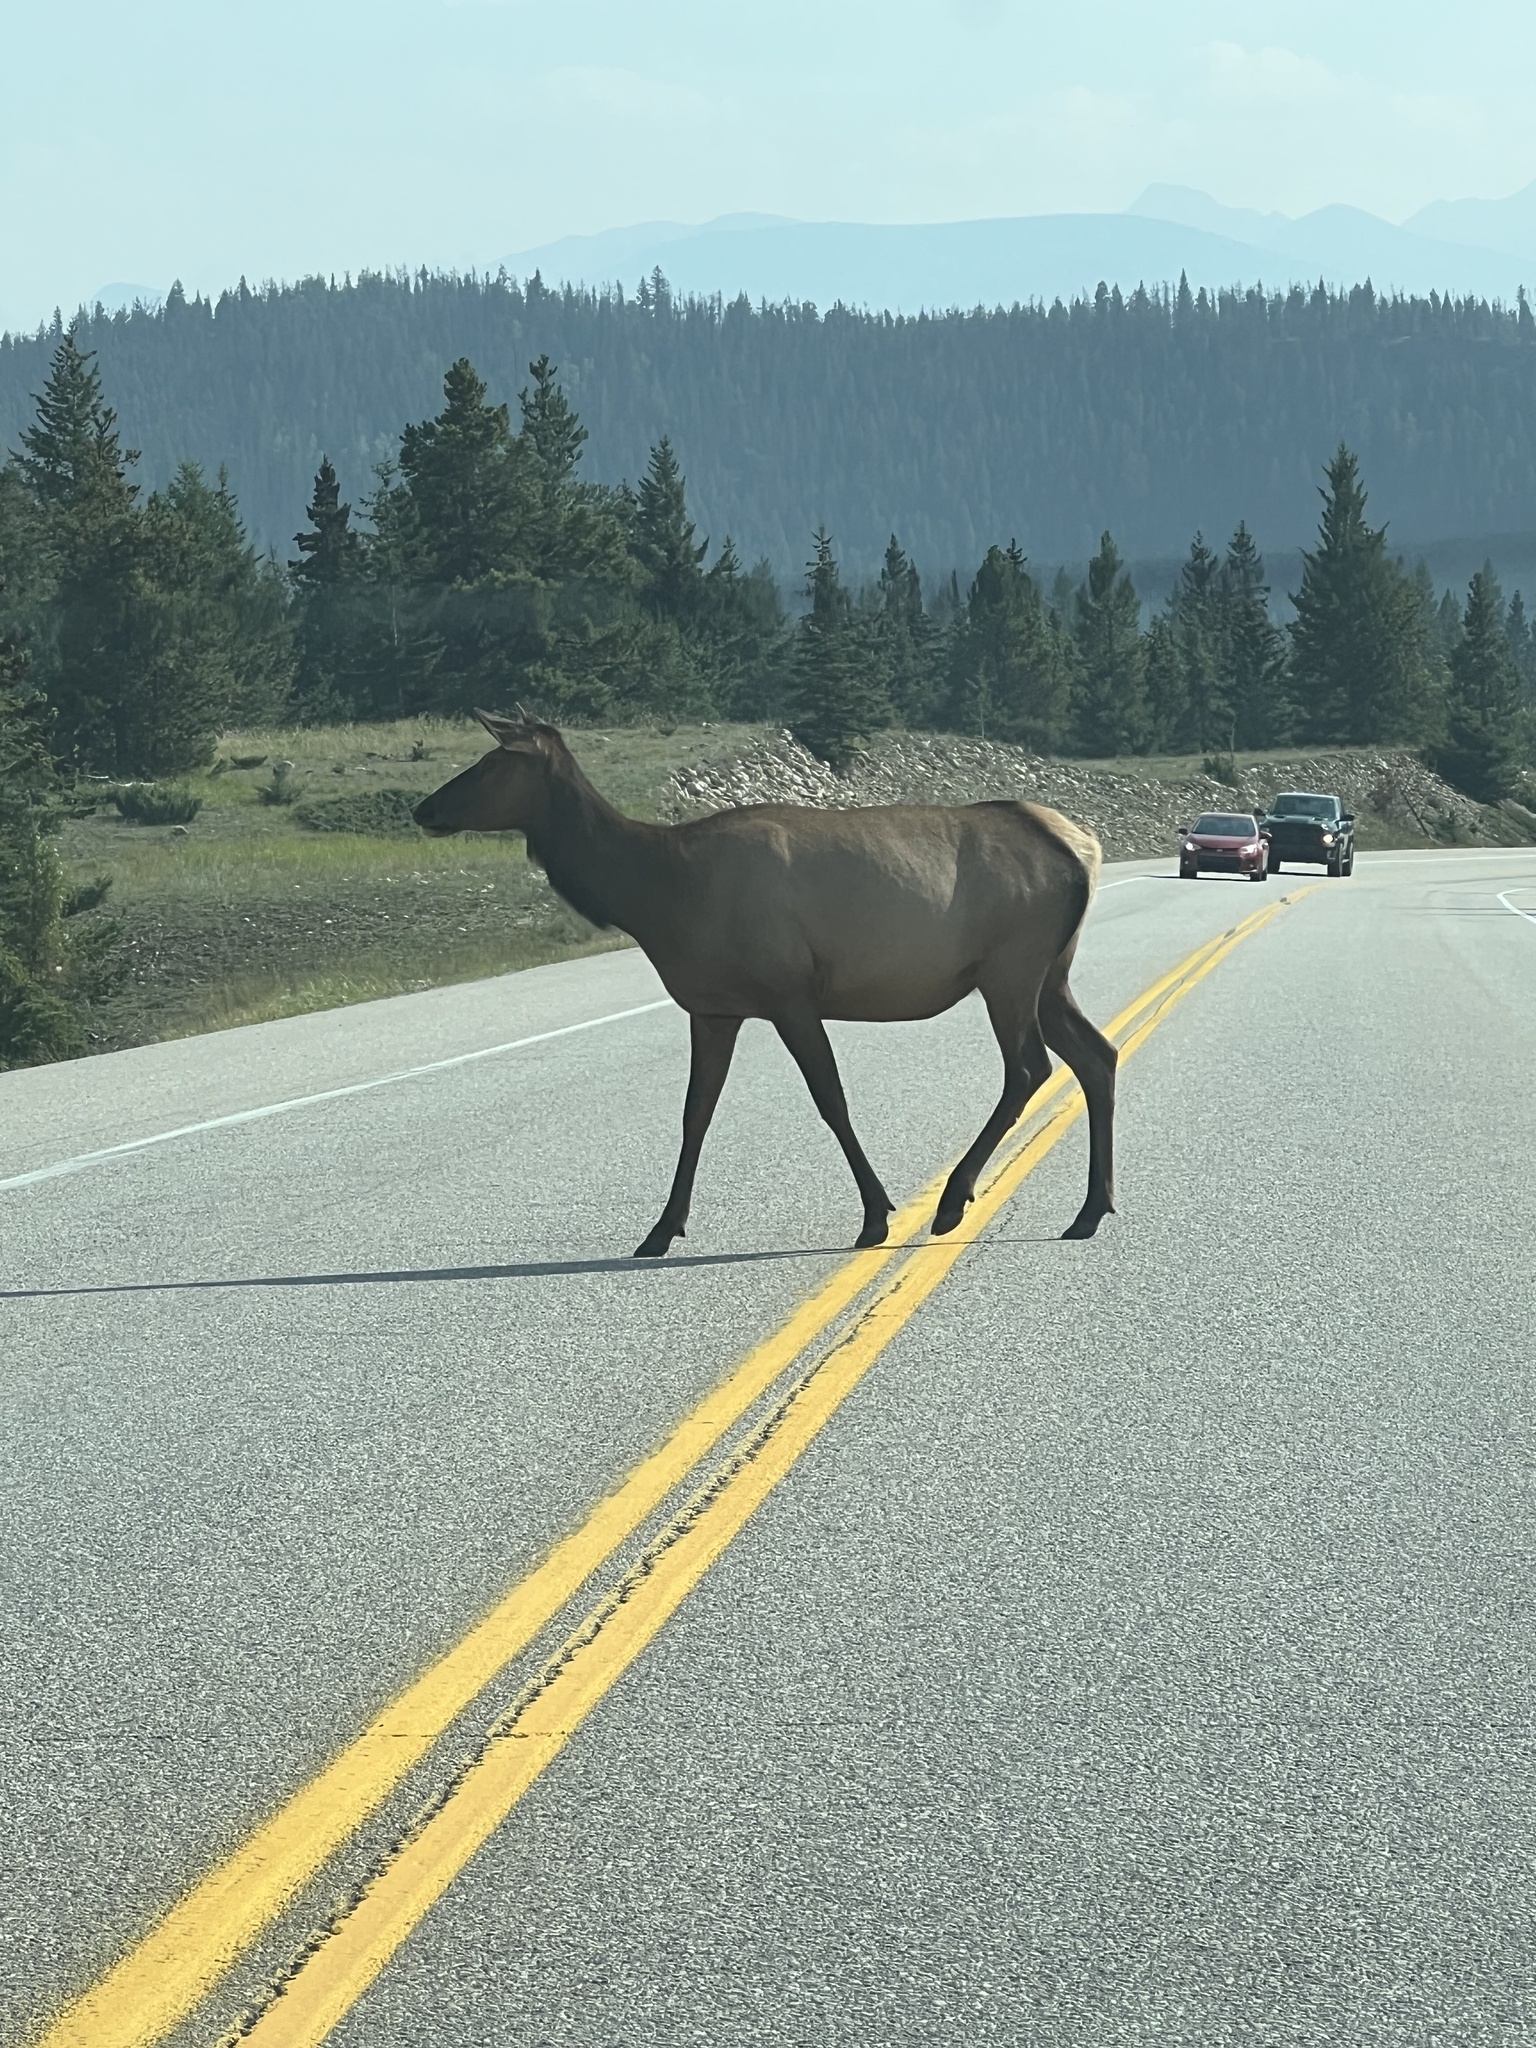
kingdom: Animalia
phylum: Chordata
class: Mammalia
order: Artiodactyla
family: Cervidae
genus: Cervus
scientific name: Cervus elaphus
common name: Red deer
